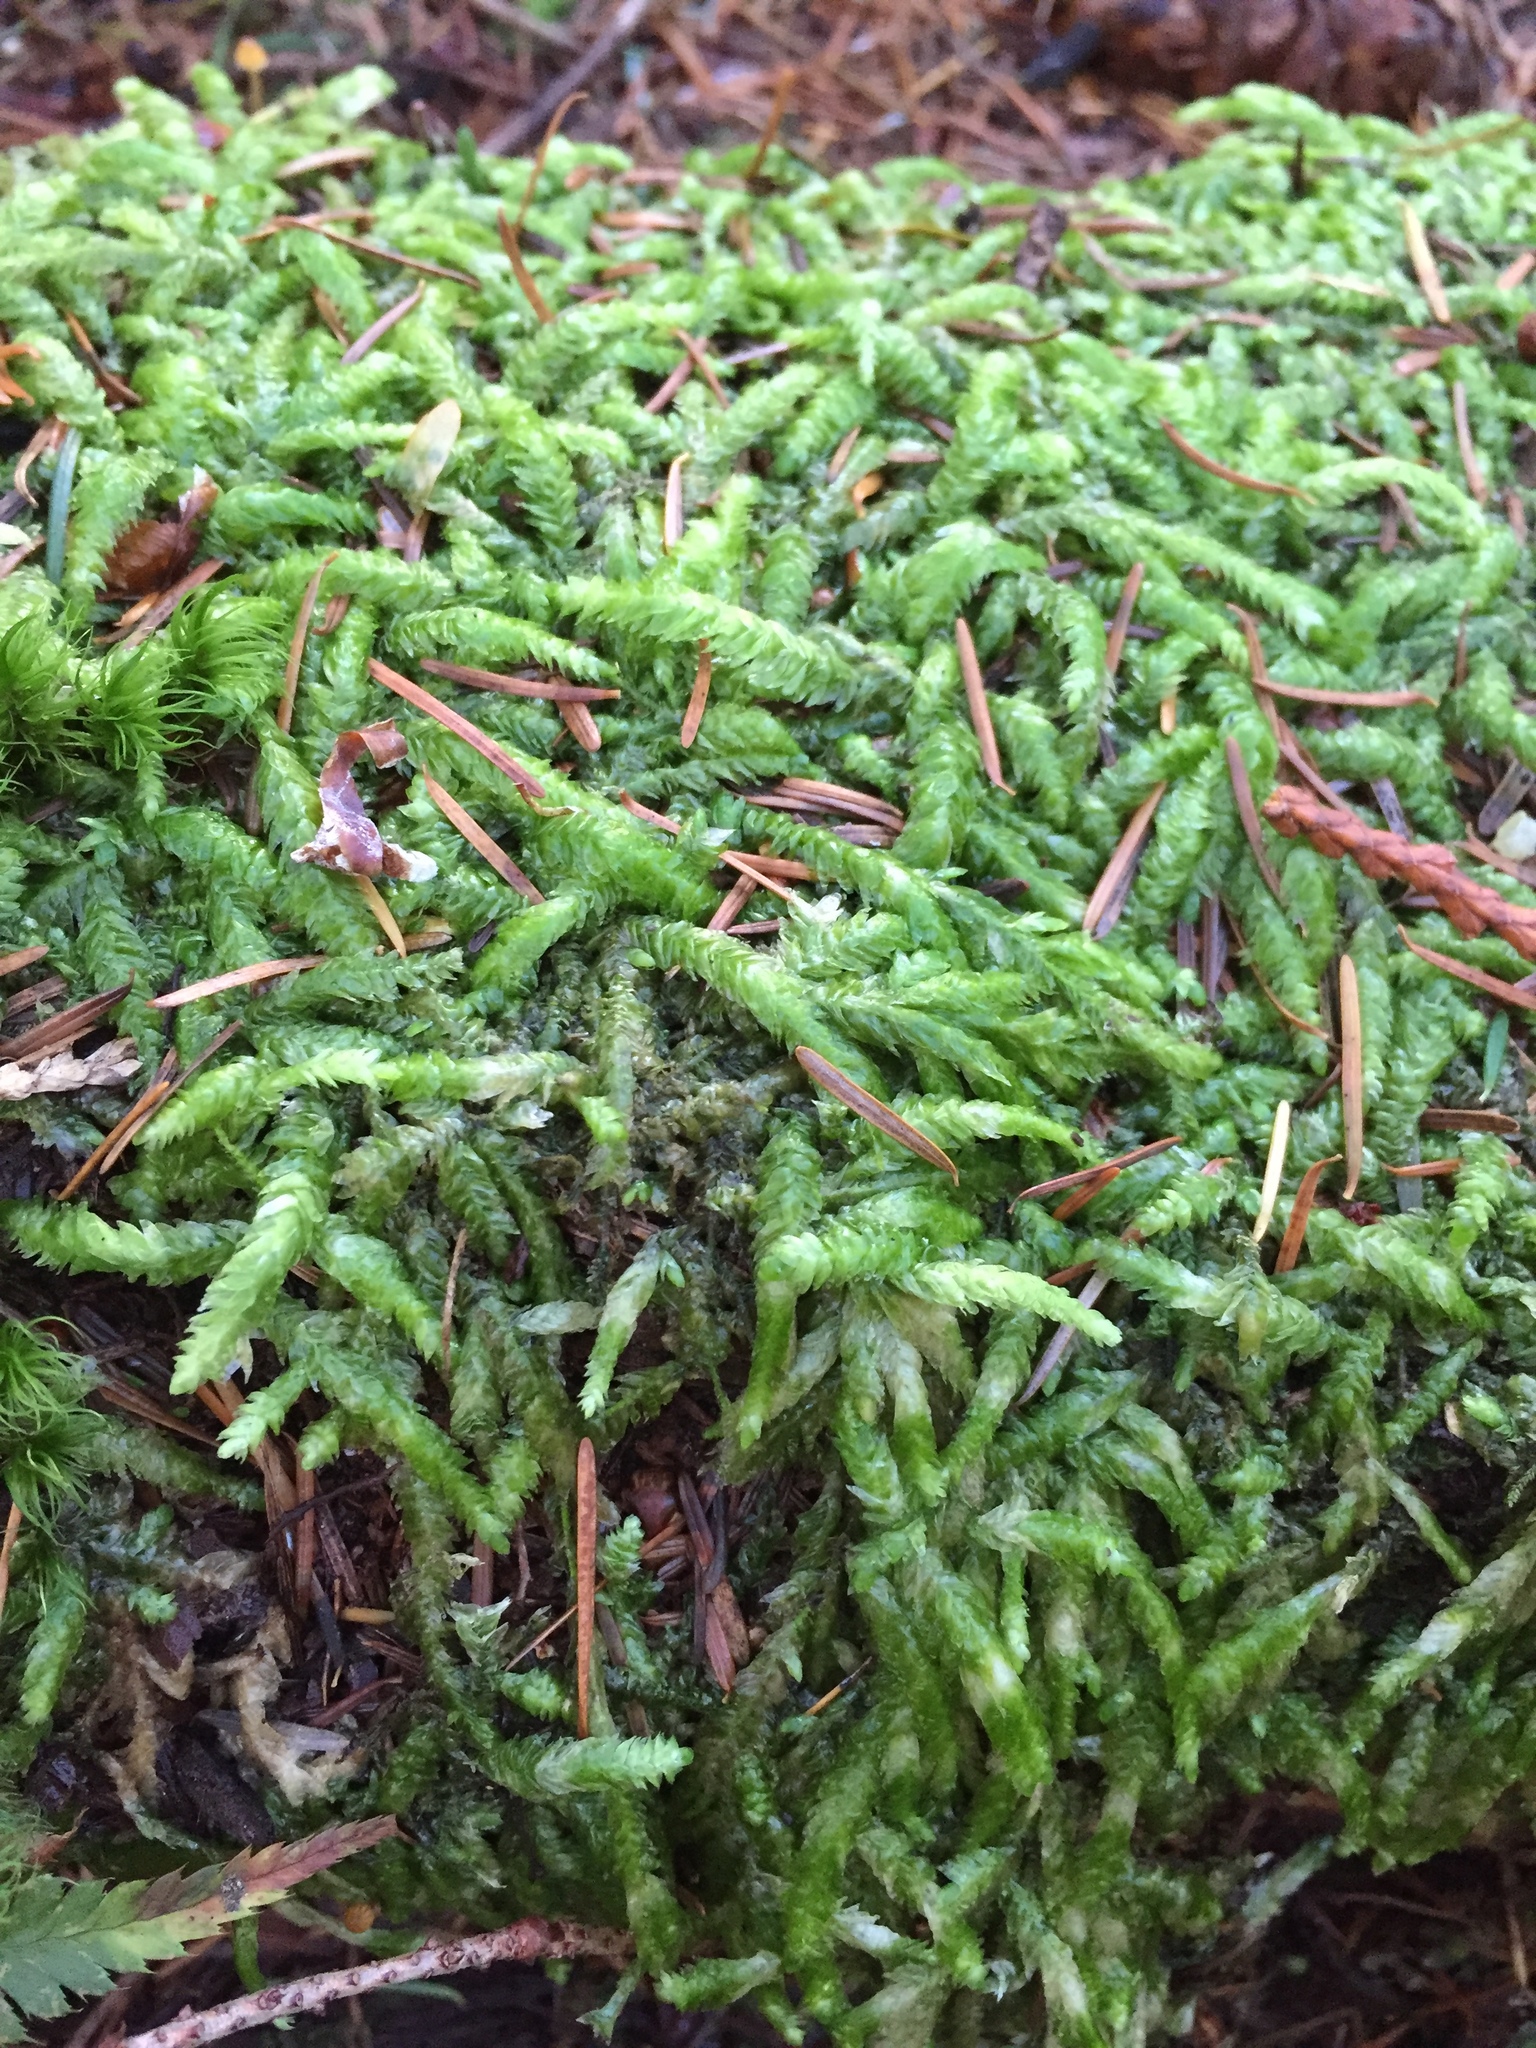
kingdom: Plantae
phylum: Bryophyta
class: Bryopsida
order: Hypnales
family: Plagiotheciaceae
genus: Plagiothecium
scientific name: Plagiothecium undulatum
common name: Waved silk-moss
